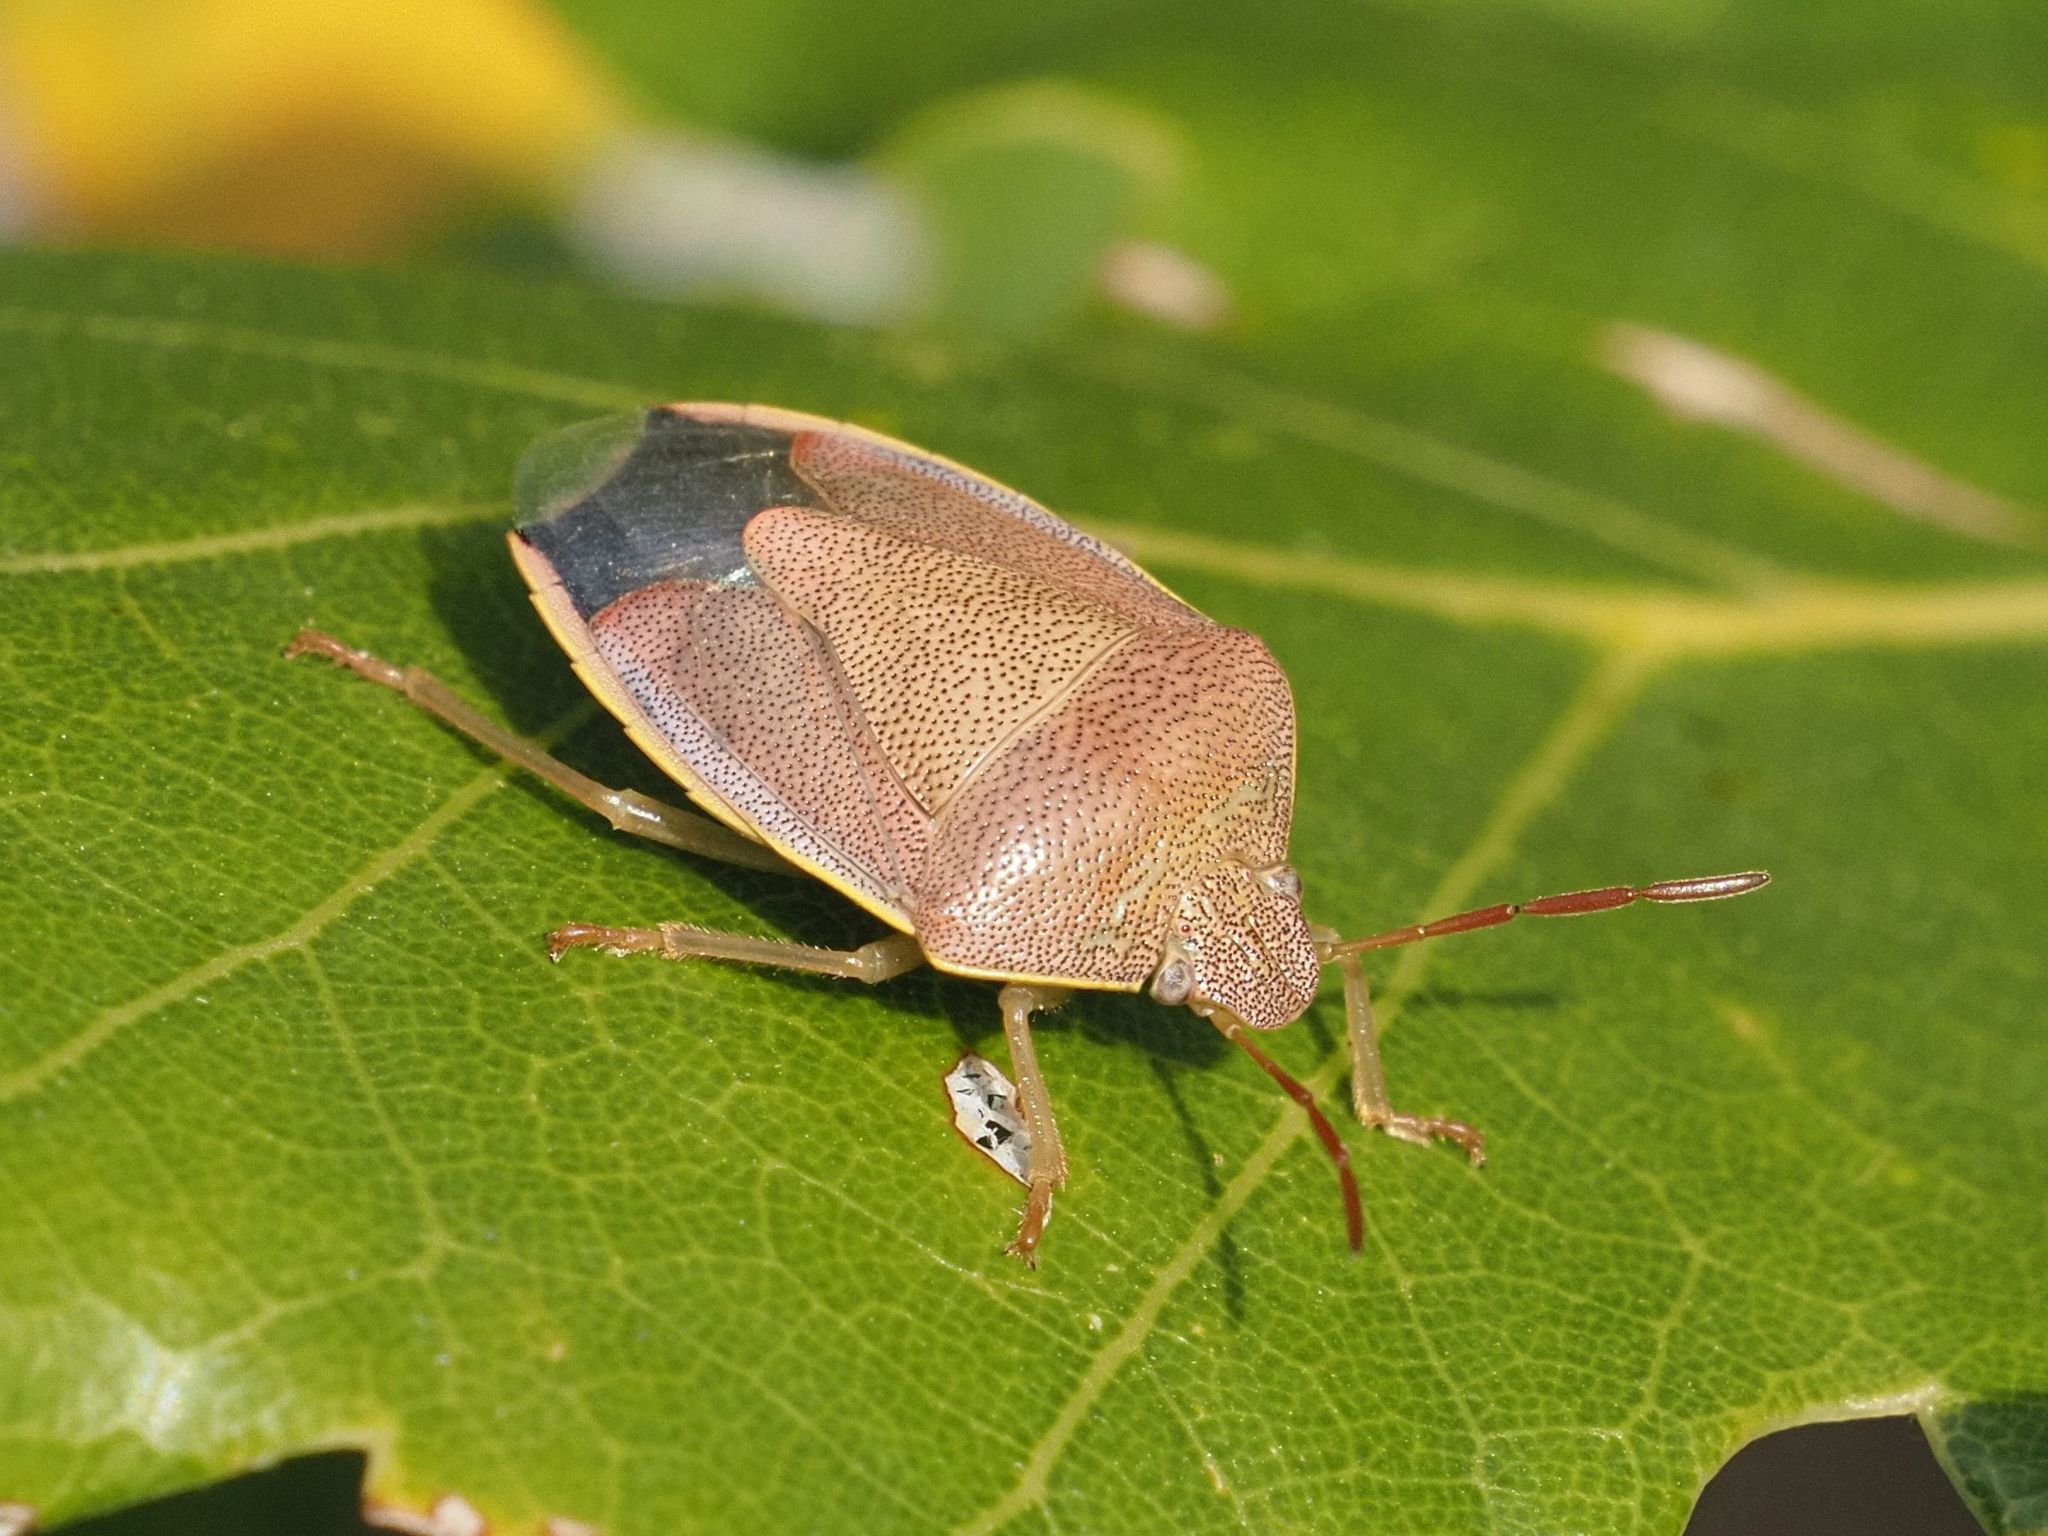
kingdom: Animalia
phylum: Arthropoda
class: Insecta
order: Hemiptera
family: Pentatomidae
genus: Piezodorus
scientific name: Piezodorus lituratus
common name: Stink bug
